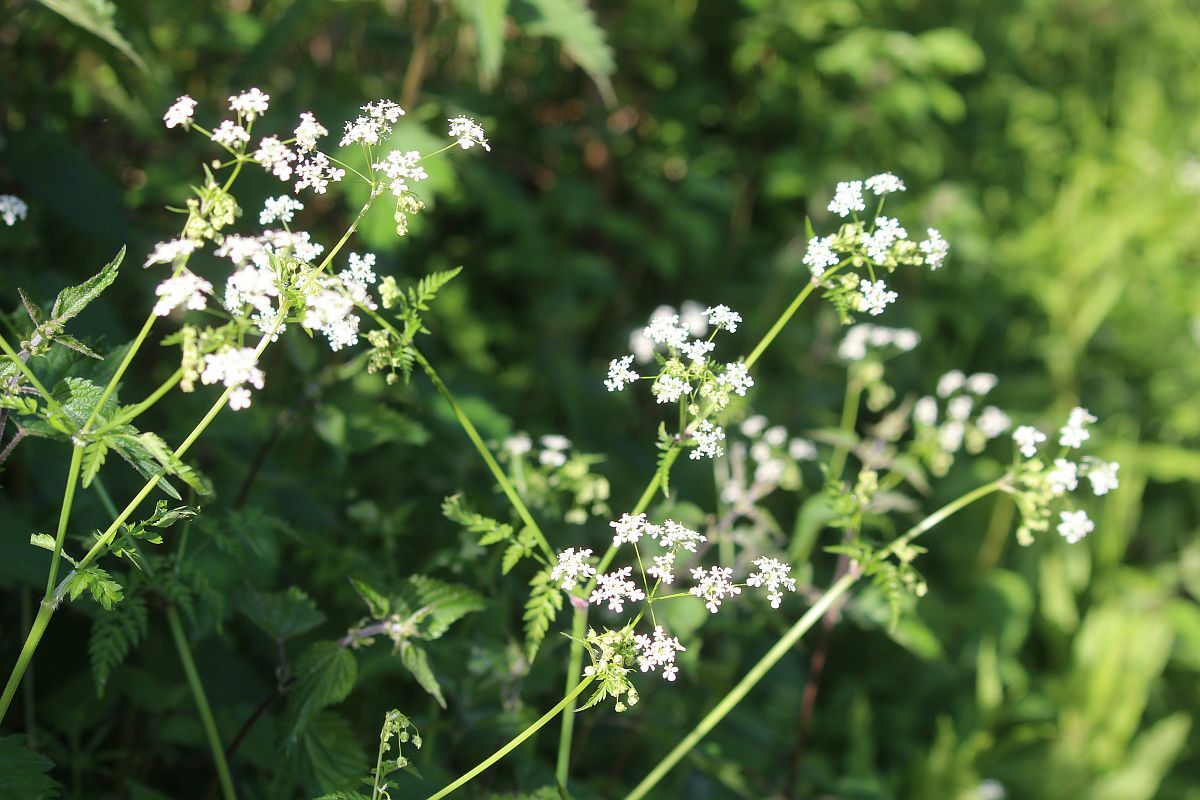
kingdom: Plantae
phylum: Tracheophyta
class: Magnoliopsida
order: Apiales
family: Apiaceae
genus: Anthriscus
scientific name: Anthriscus sylvestris
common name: Cow parsley
